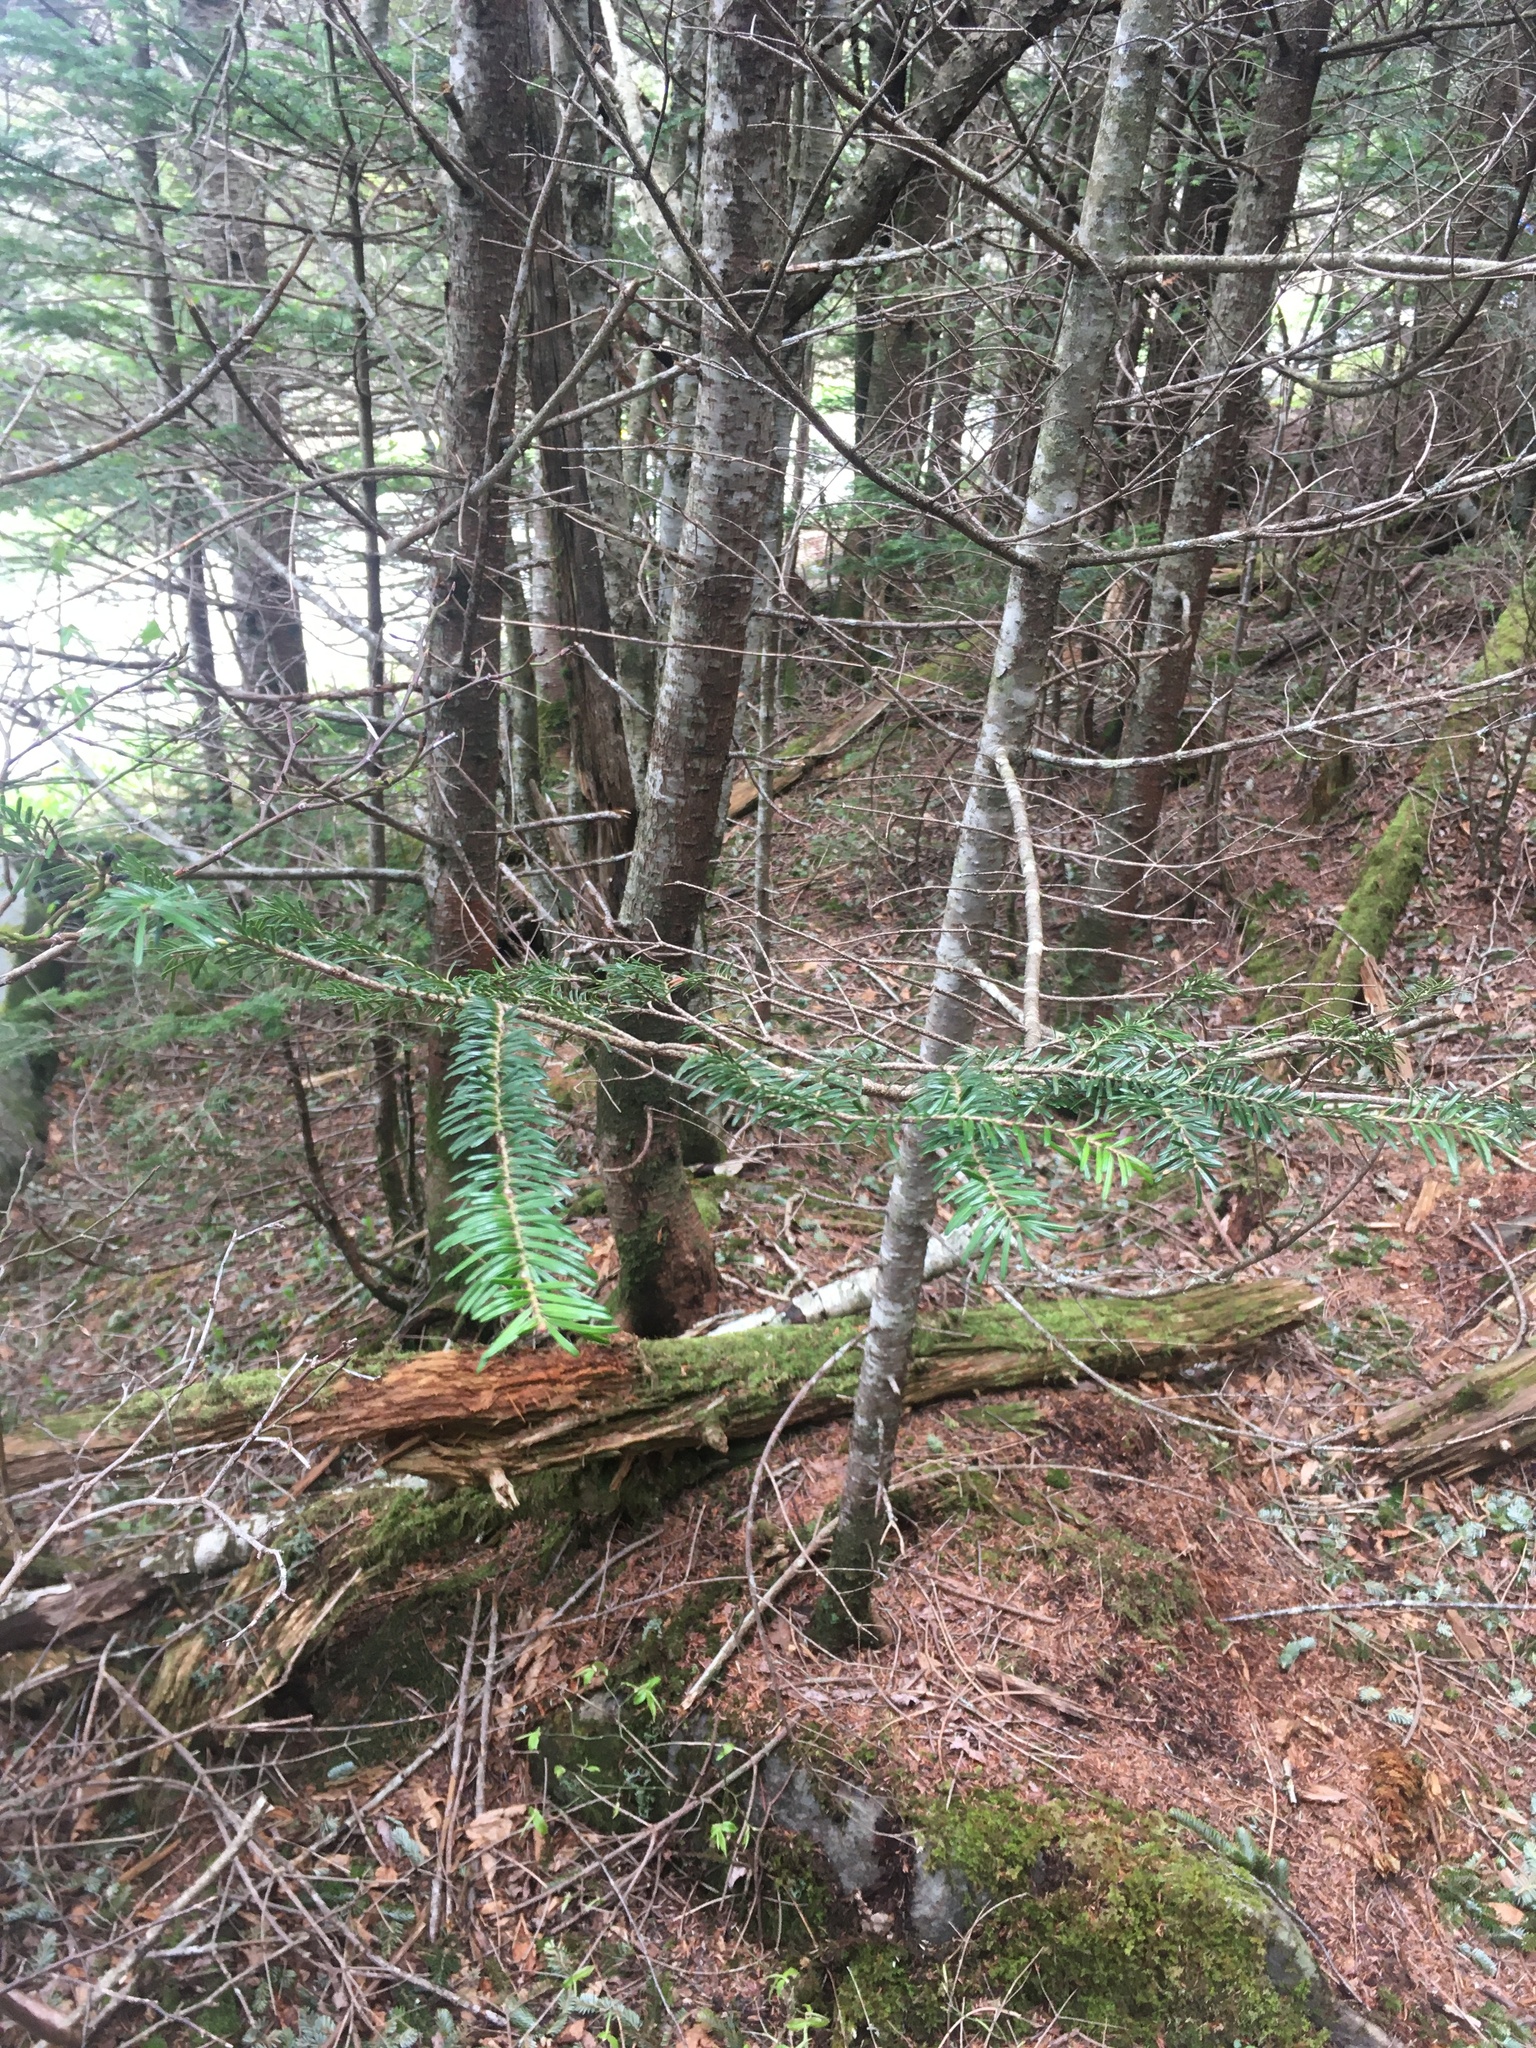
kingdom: Plantae
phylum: Tracheophyta
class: Pinopsida
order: Pinales
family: Pinaceae
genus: Abies
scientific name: Abies fraseri
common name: Fraser fir
